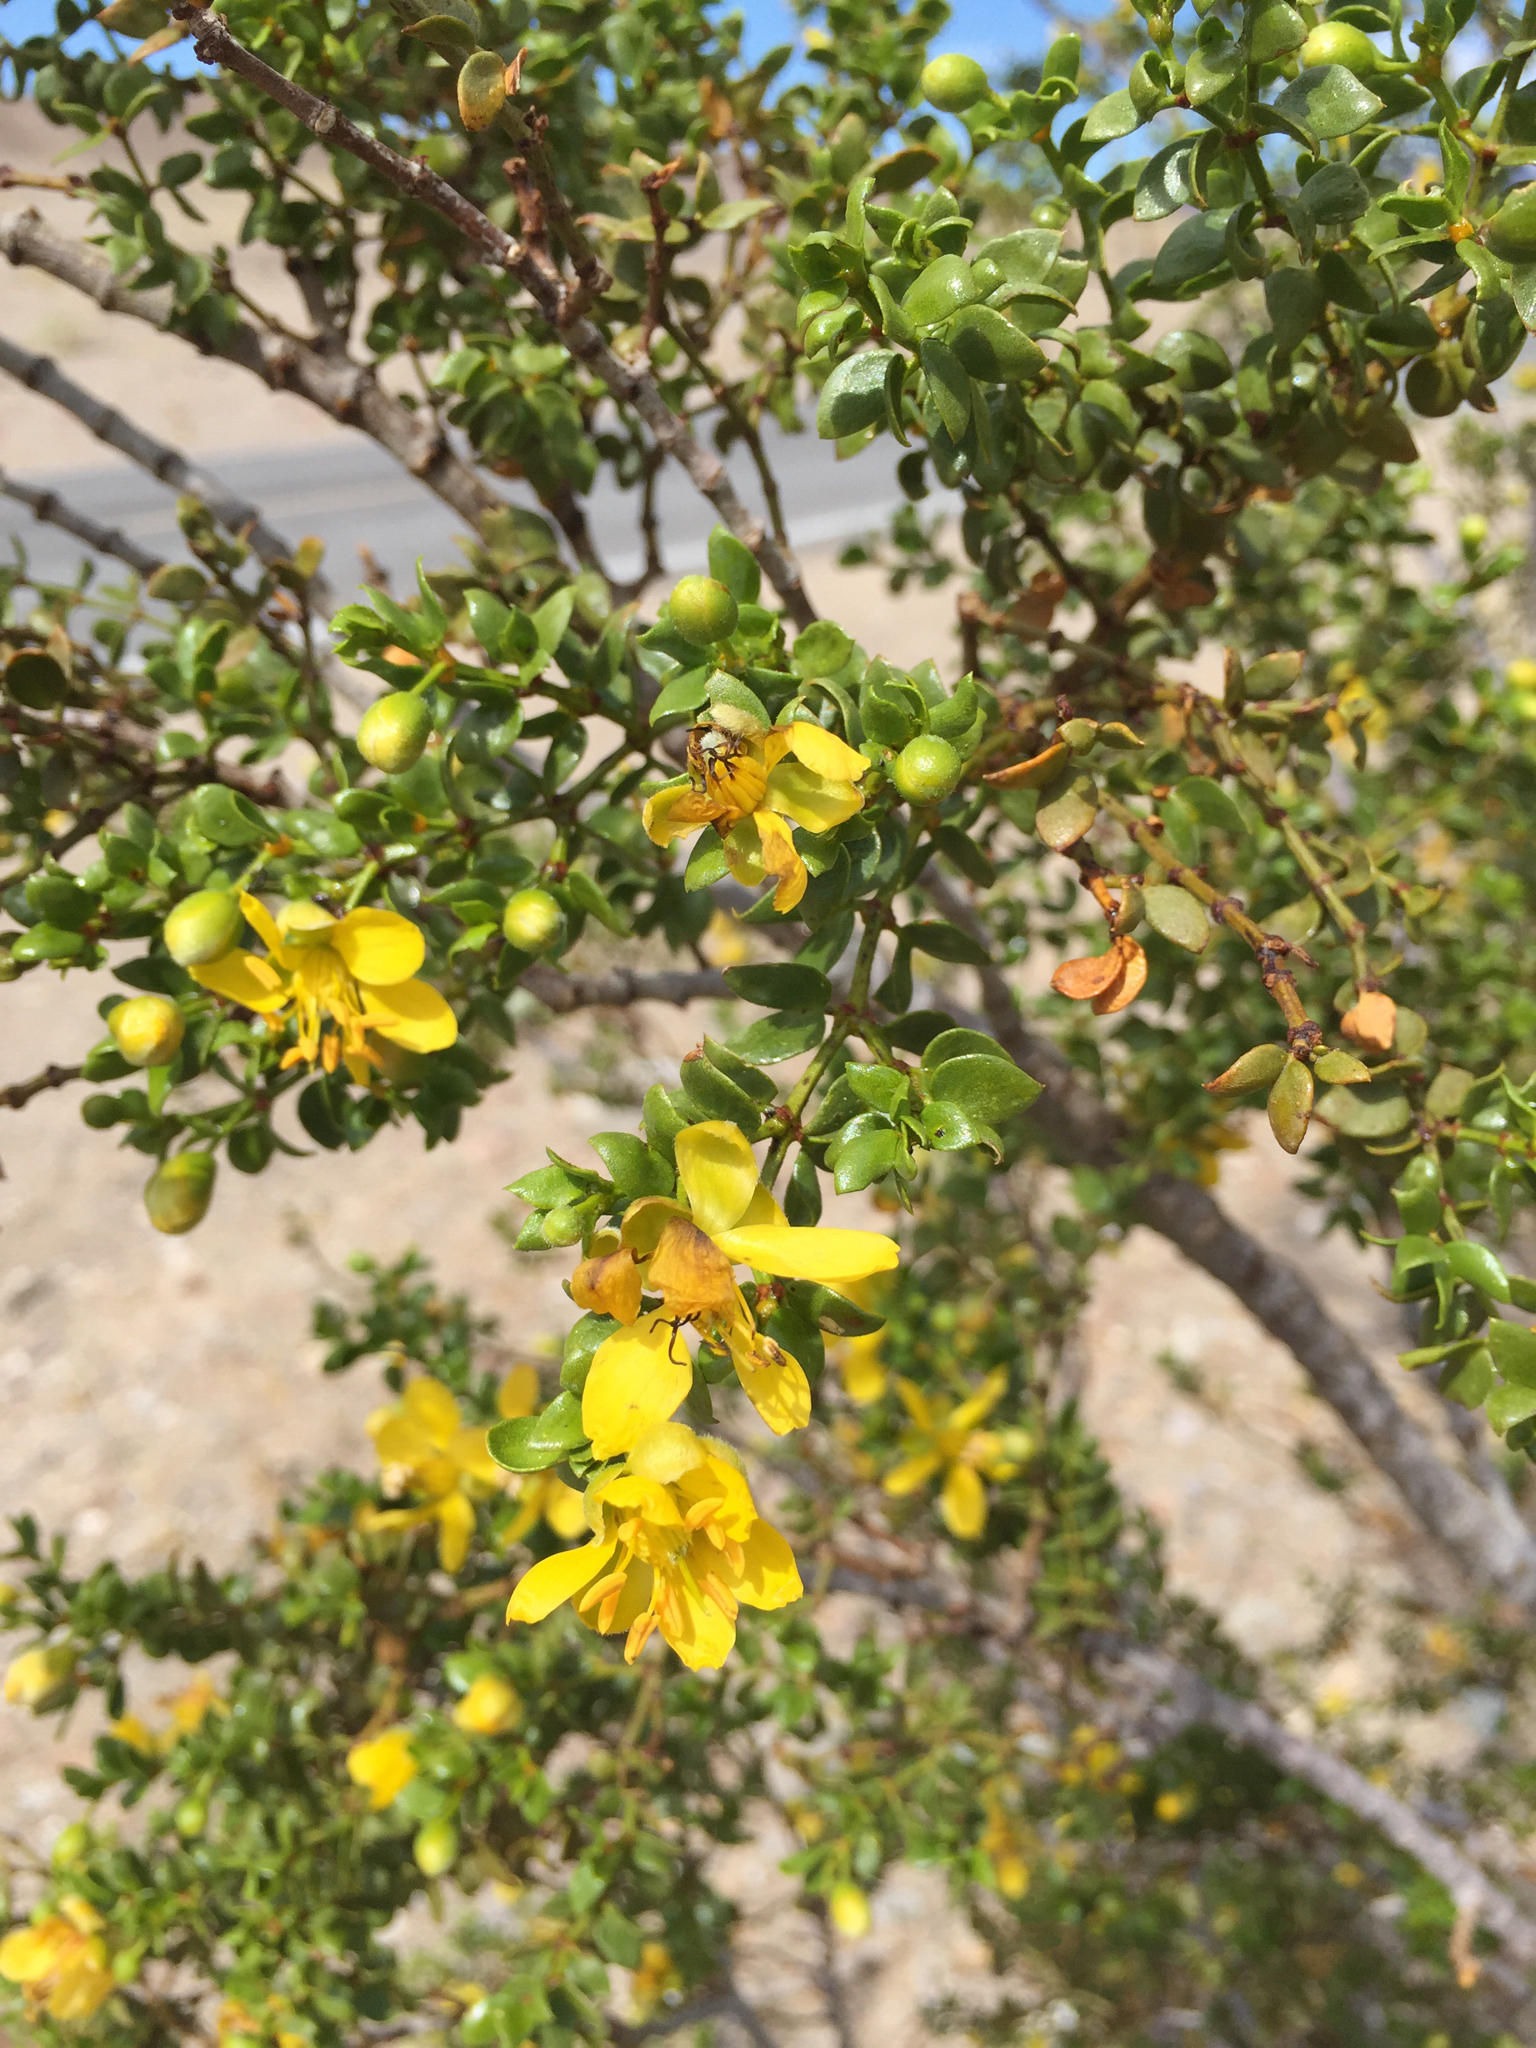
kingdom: Plantae
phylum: Tracheophyta
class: Magnoliopsida
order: Zygophyllales
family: Zygophyllaceae
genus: Larrea
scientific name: Larrea tridentata
